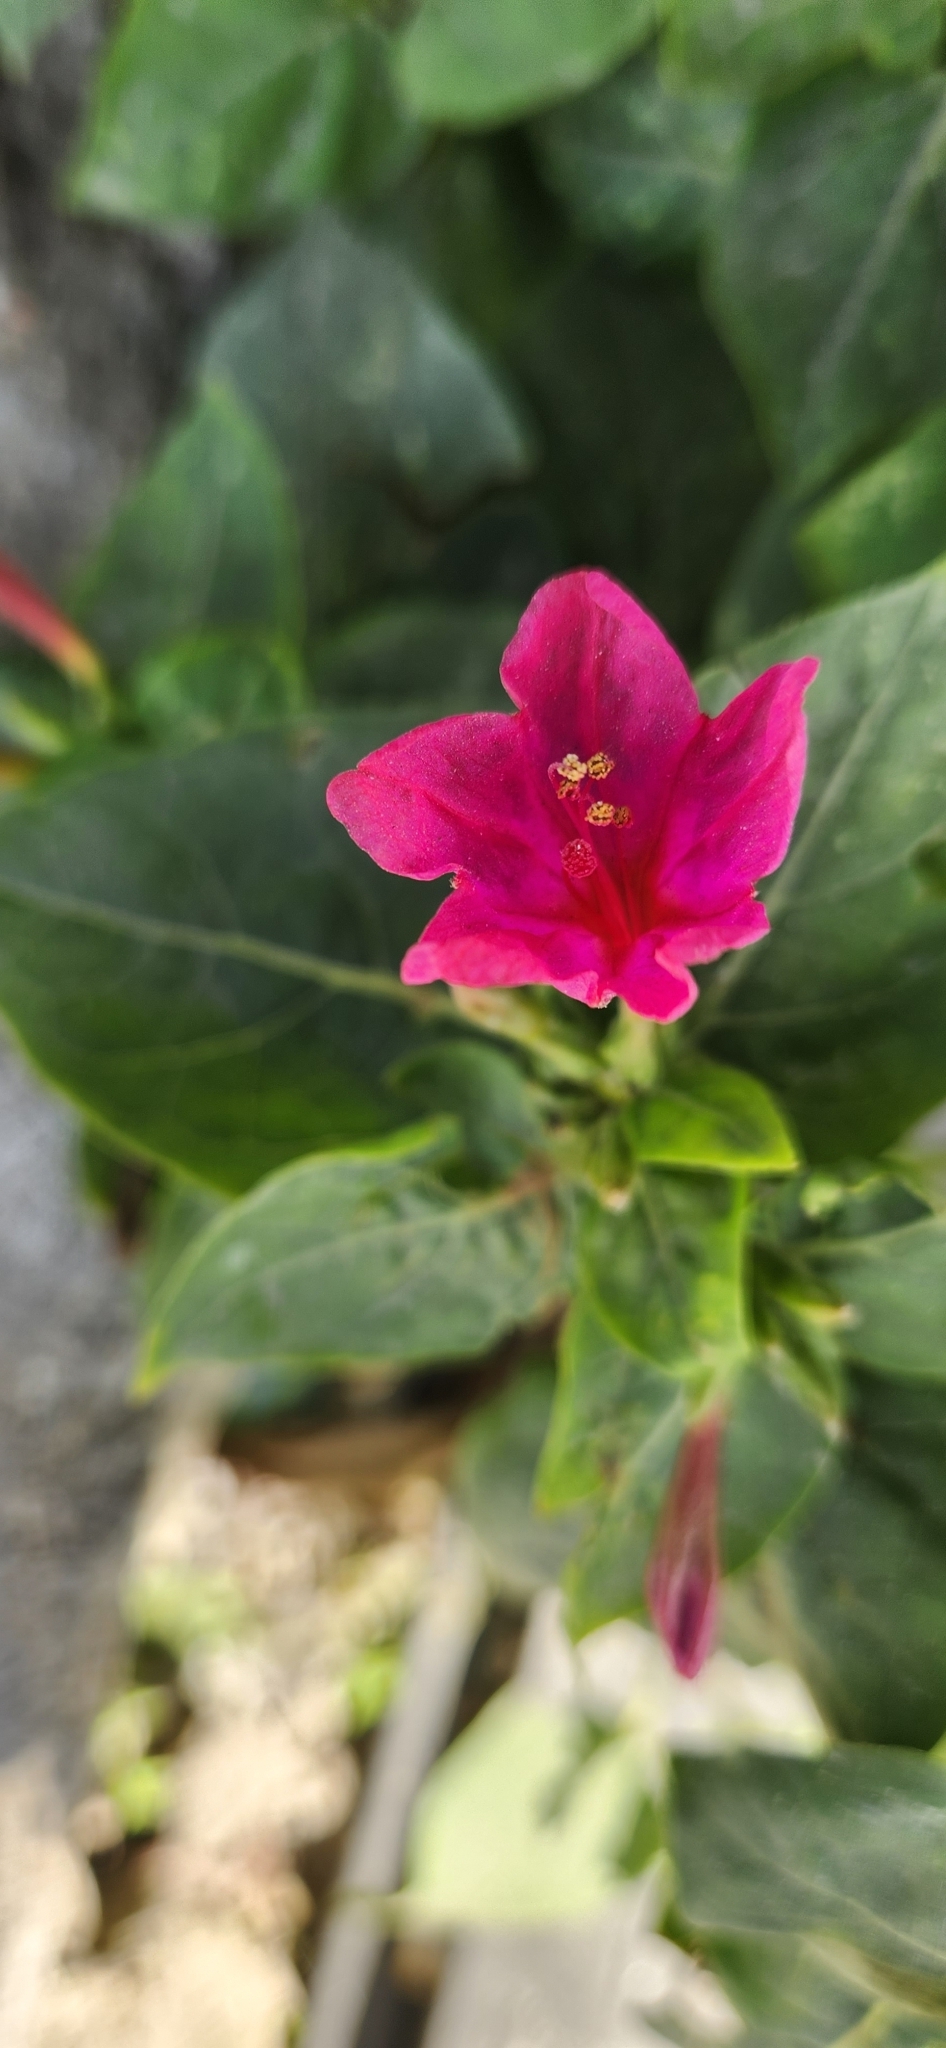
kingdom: Plantae
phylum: Tracheophyta
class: Magnoliopsida
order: Caryophyllales
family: Nyctaginaceae
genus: Mirabilis
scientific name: Mirabilis jalapa
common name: Marvel-of-peru
